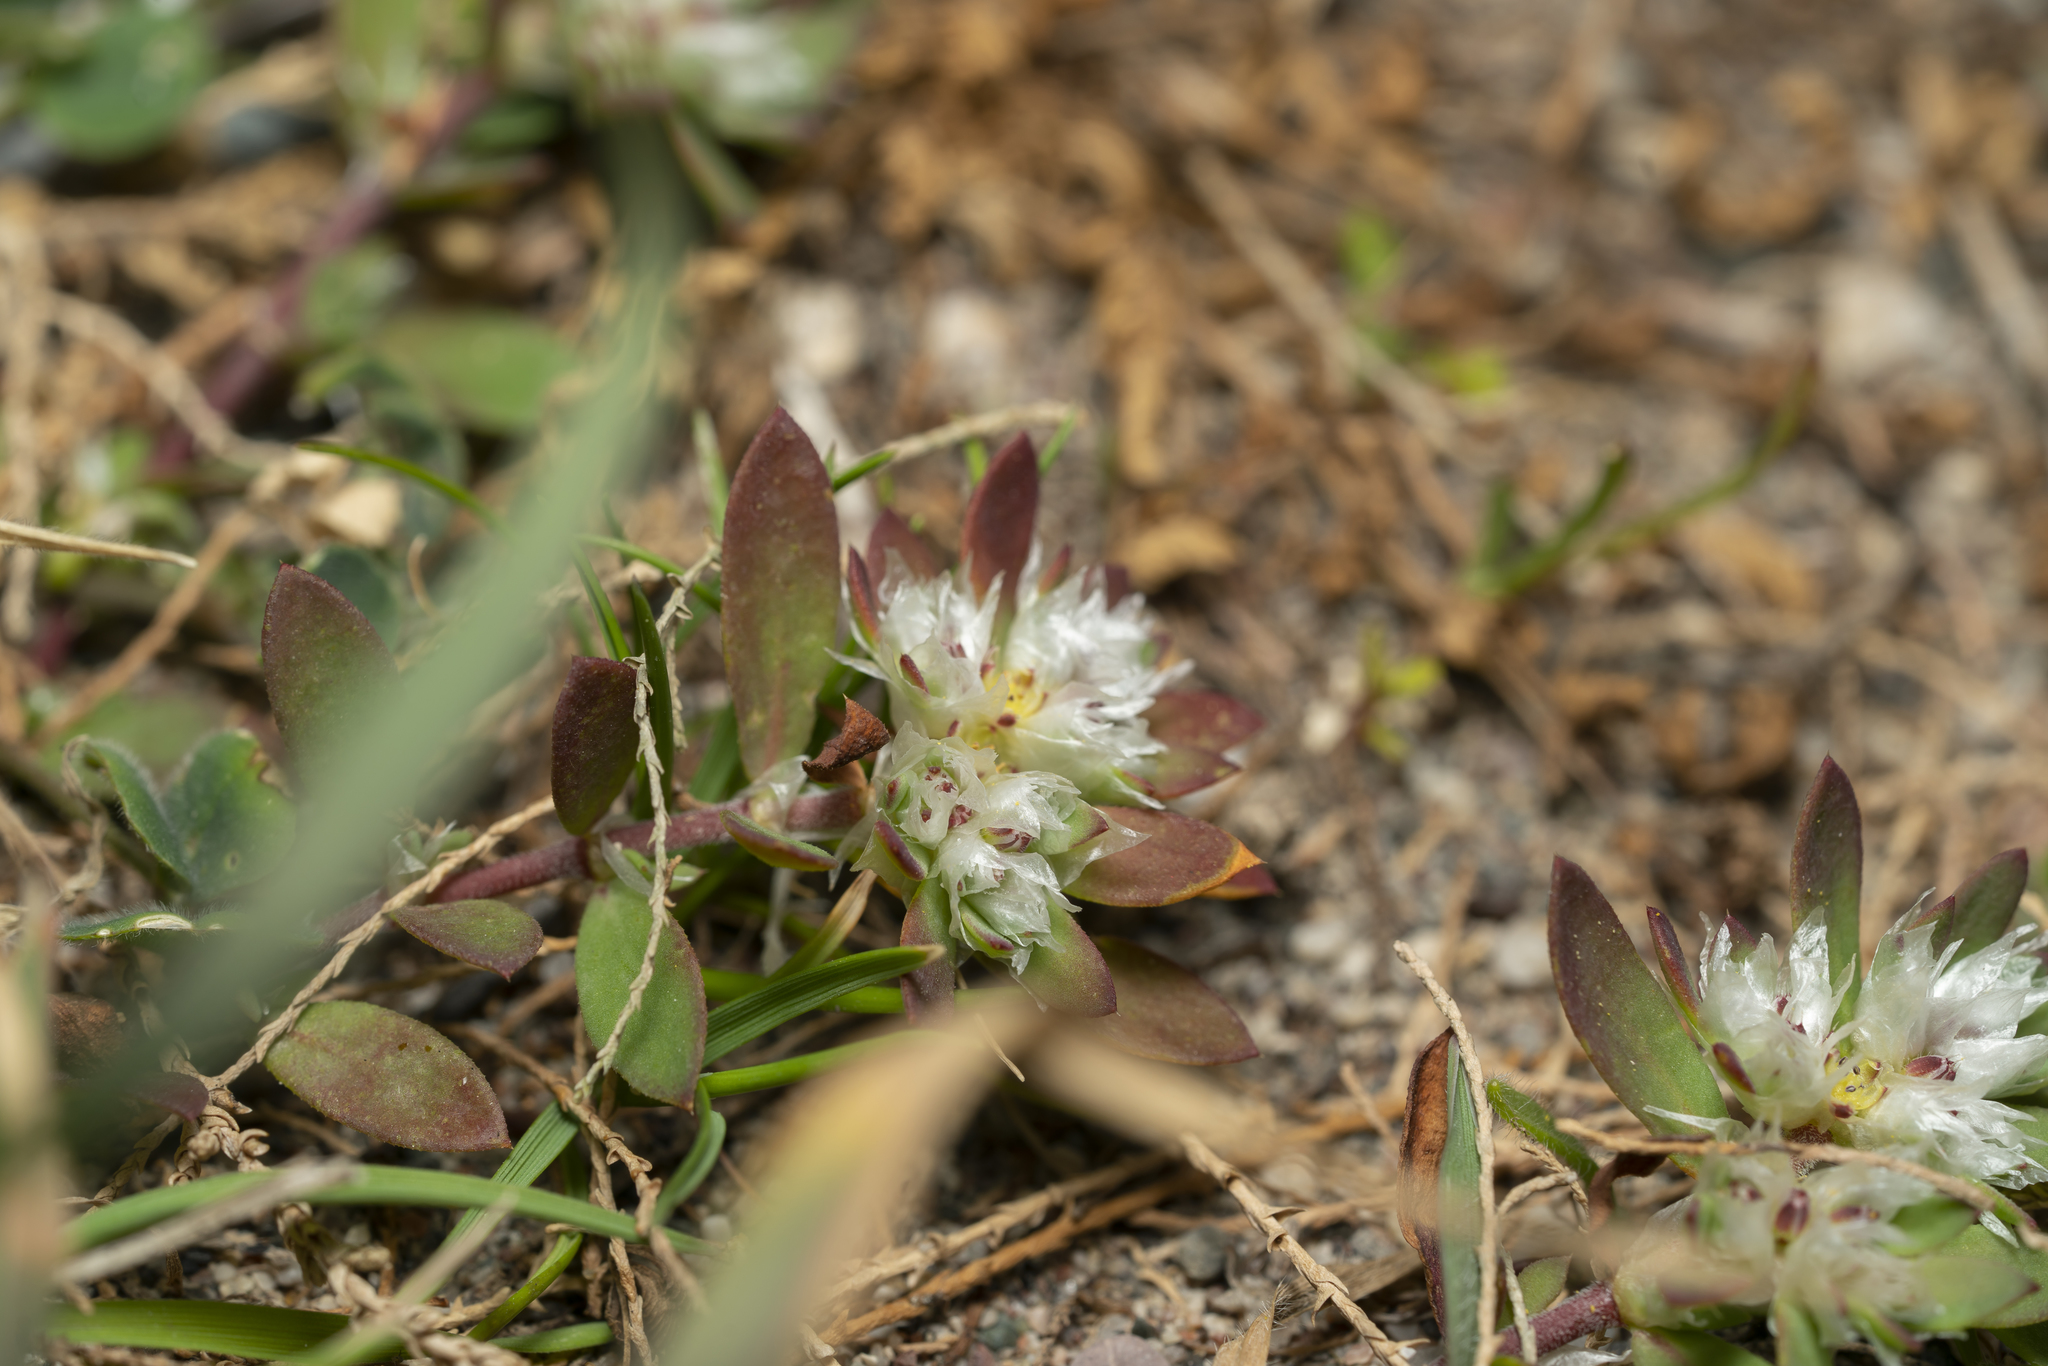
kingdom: Plantae
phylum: Tracheophyta
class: Magnoliopsida
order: Caryophyllales
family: Caryophyllaceae
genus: Paronychia
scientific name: Paronychia argentea
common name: Silver nailroot
